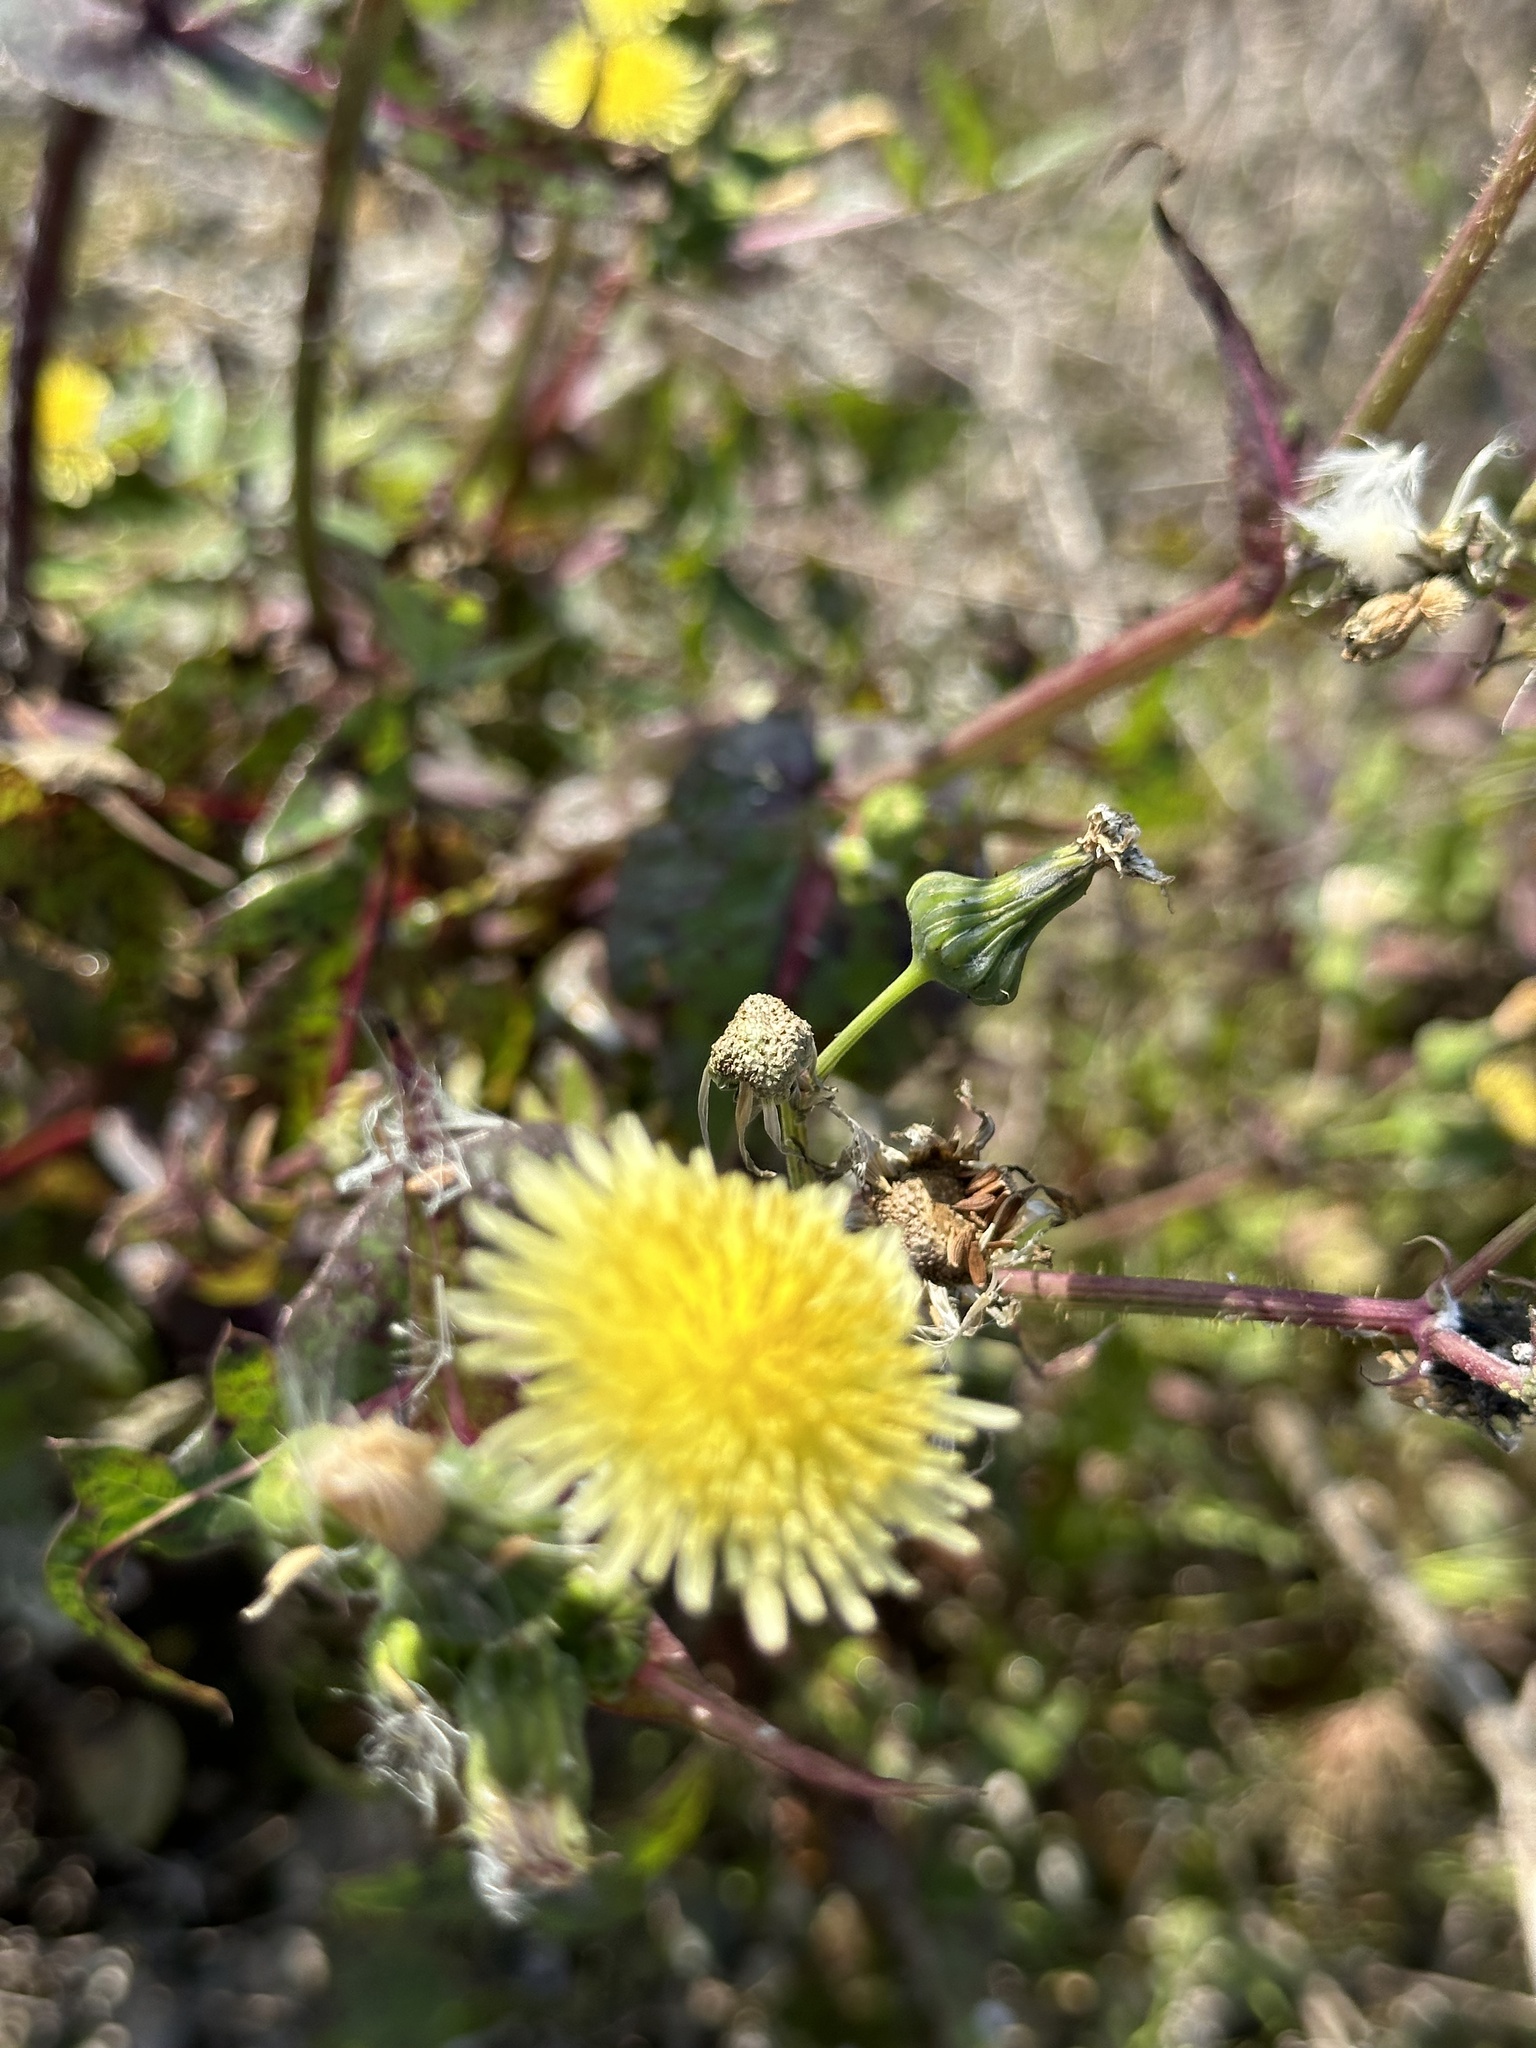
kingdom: Plantae
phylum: Tracheophyta
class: Magnoliopsida
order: Asterales
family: Asteraceae
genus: Sonchus
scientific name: Sonchus oleraceus
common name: Common sowthistle
